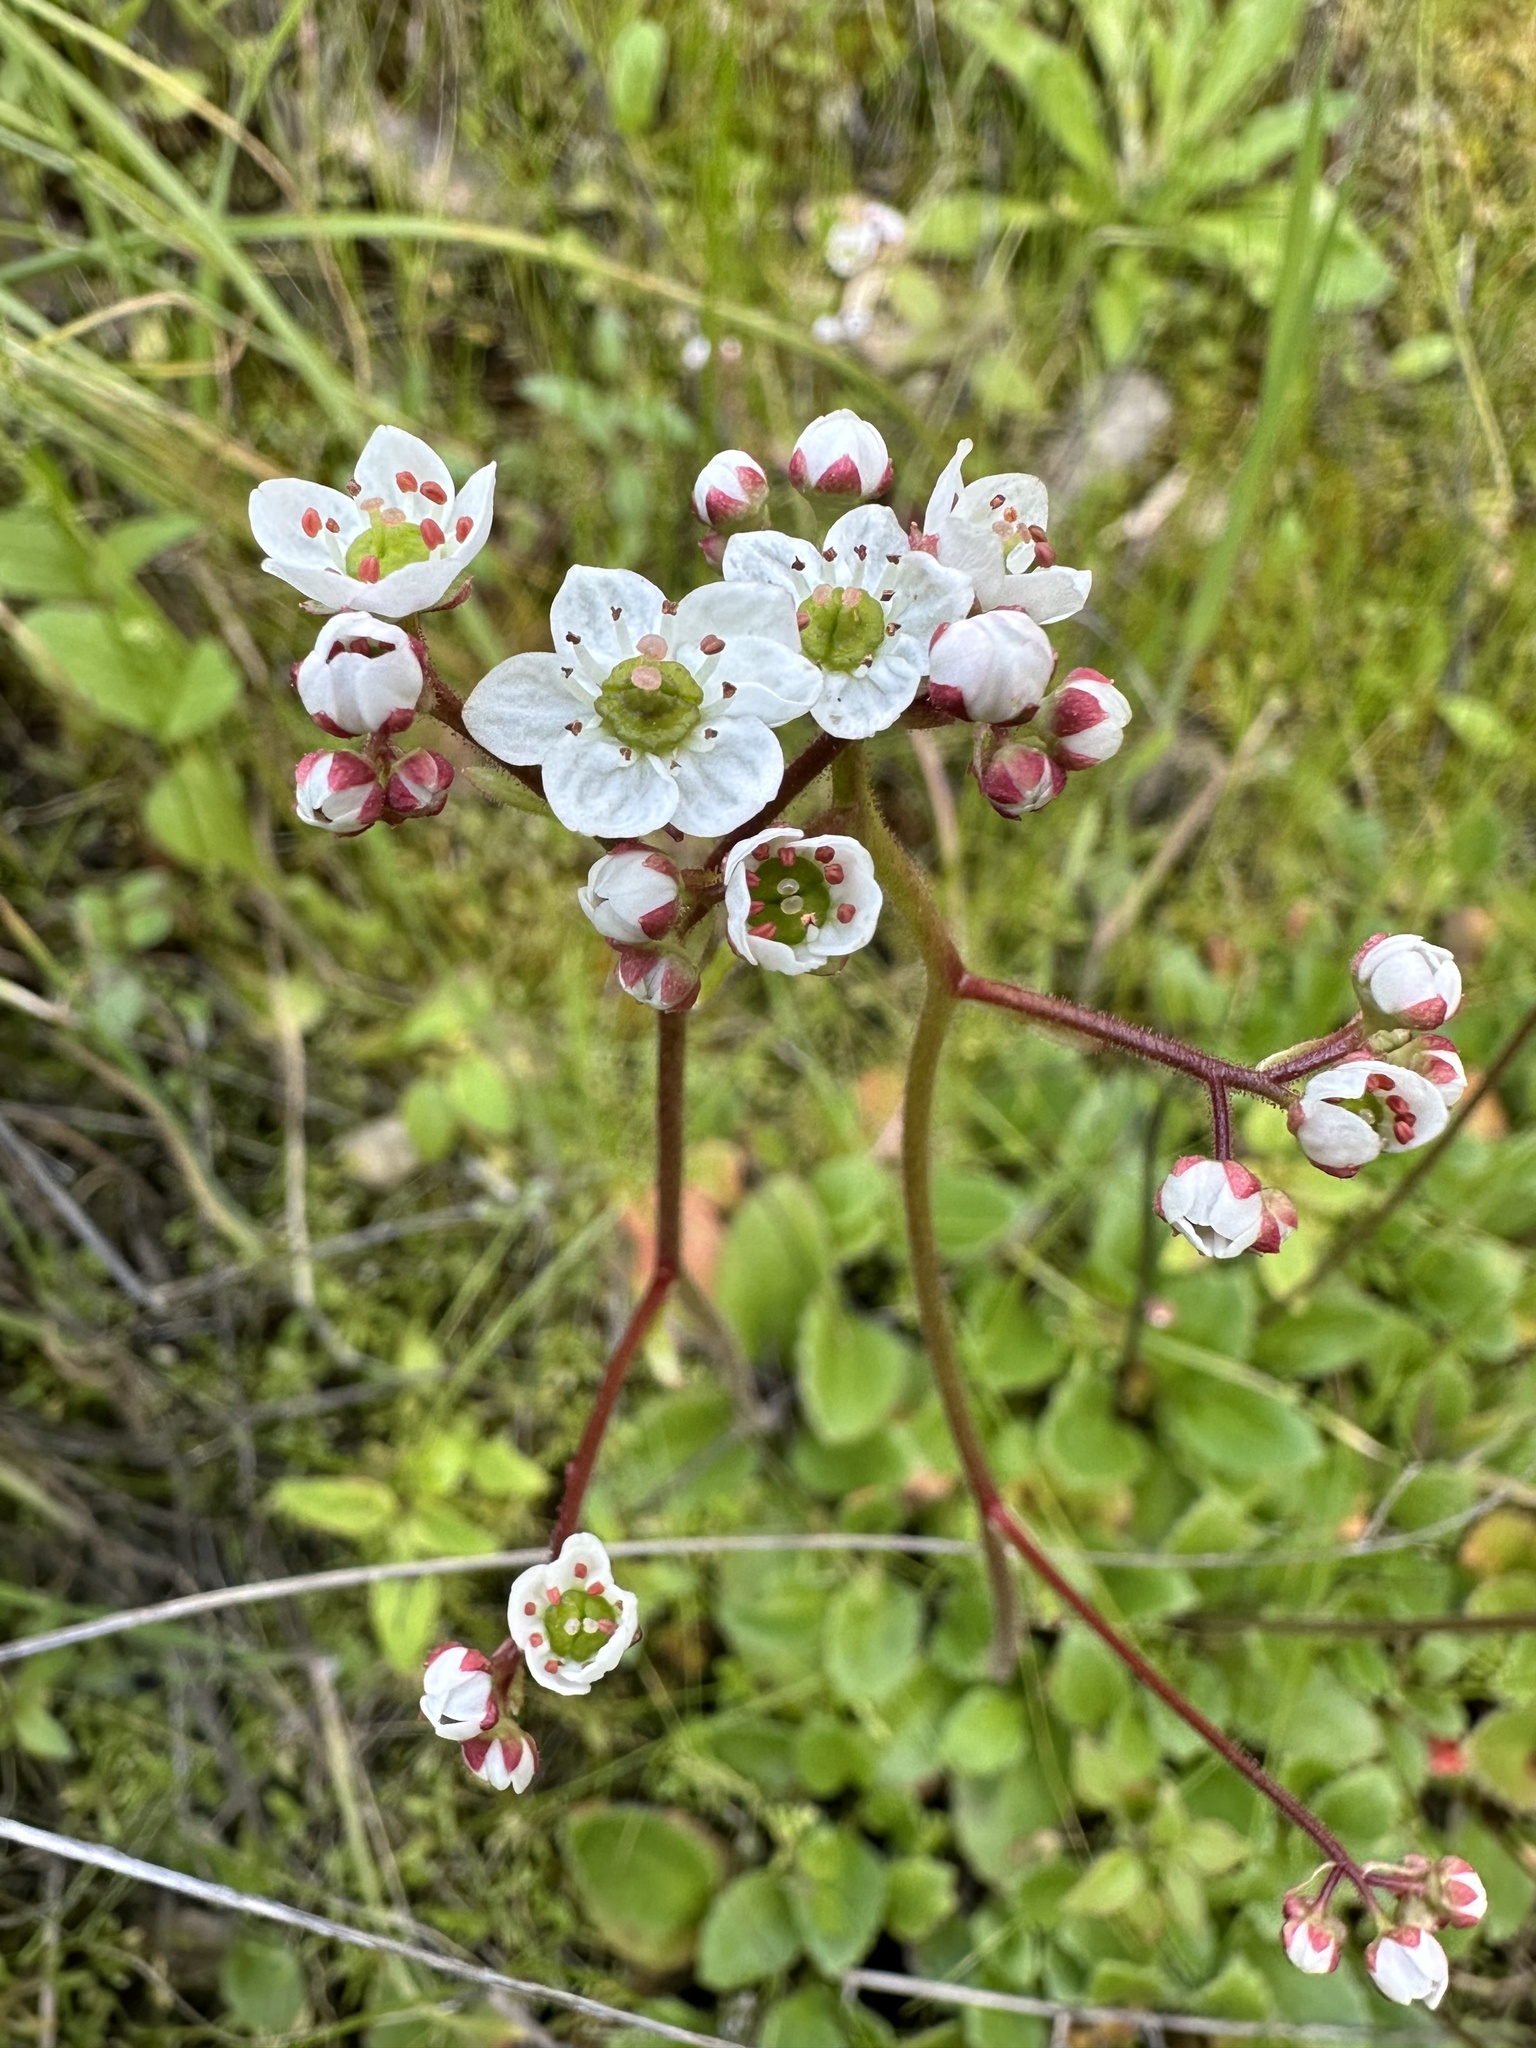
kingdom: Plantae
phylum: Tracheophyta
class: Magnoliopsida
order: Saxifragales
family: Saxifragaceae
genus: Micranthes
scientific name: Micranthes californica
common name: California saxifrage
